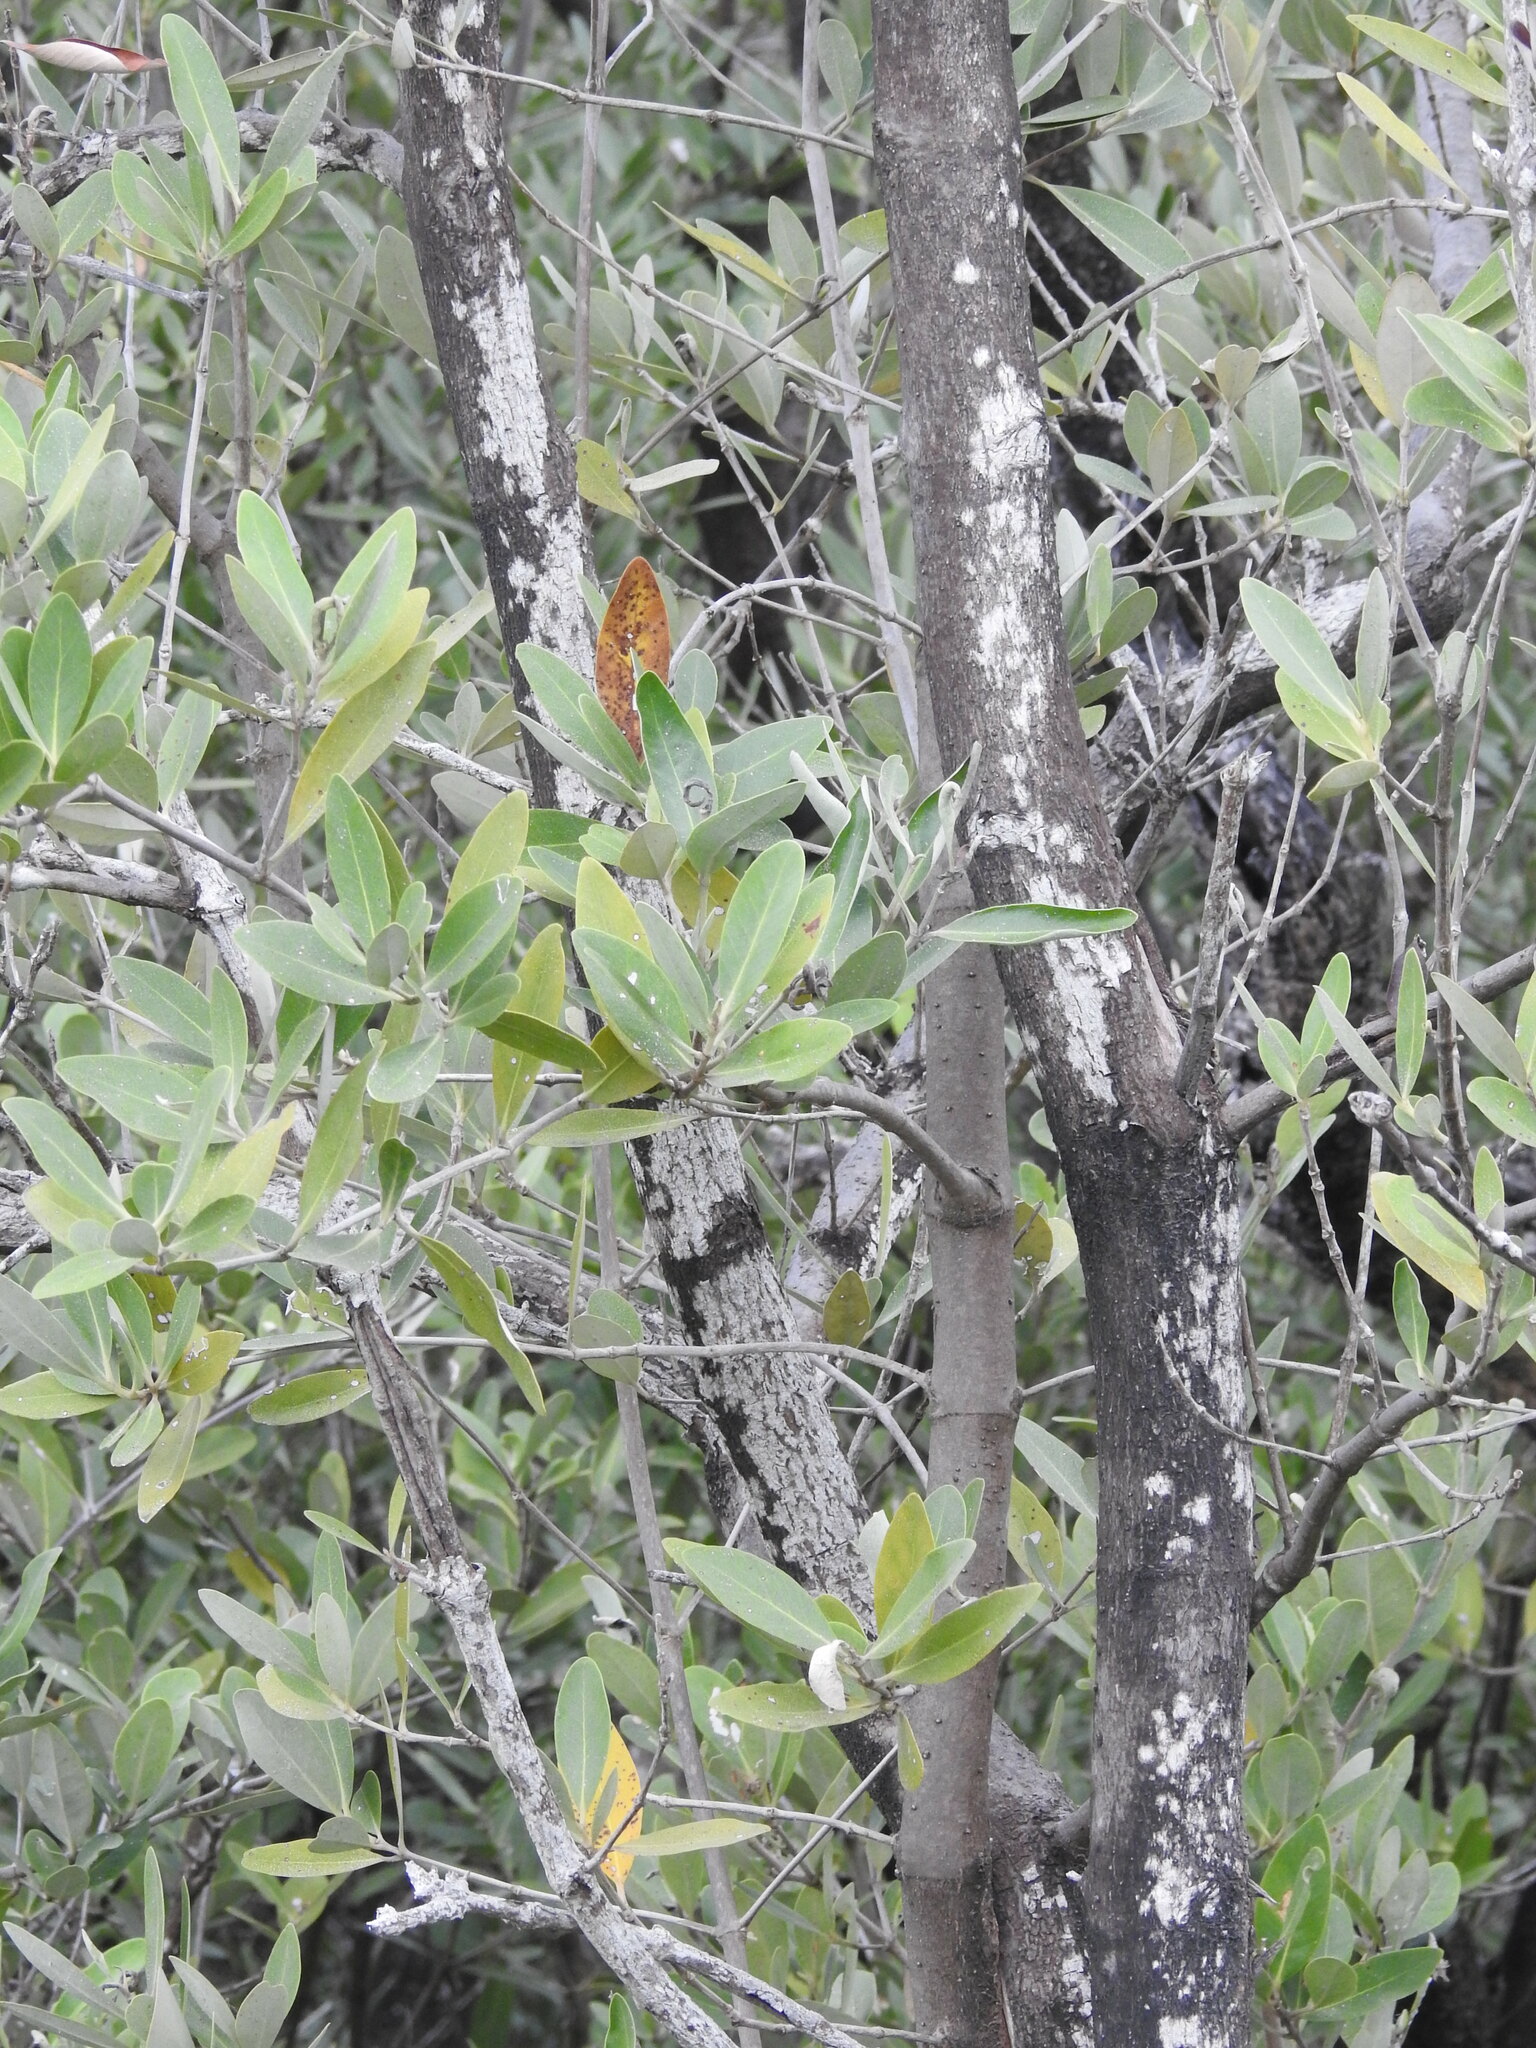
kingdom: Plantae
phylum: Tracheophyta
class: Magnoliopsida
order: Lamiales
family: Acanthaceae
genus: Avicennia
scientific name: Avicennia germinans
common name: Black mangrove
